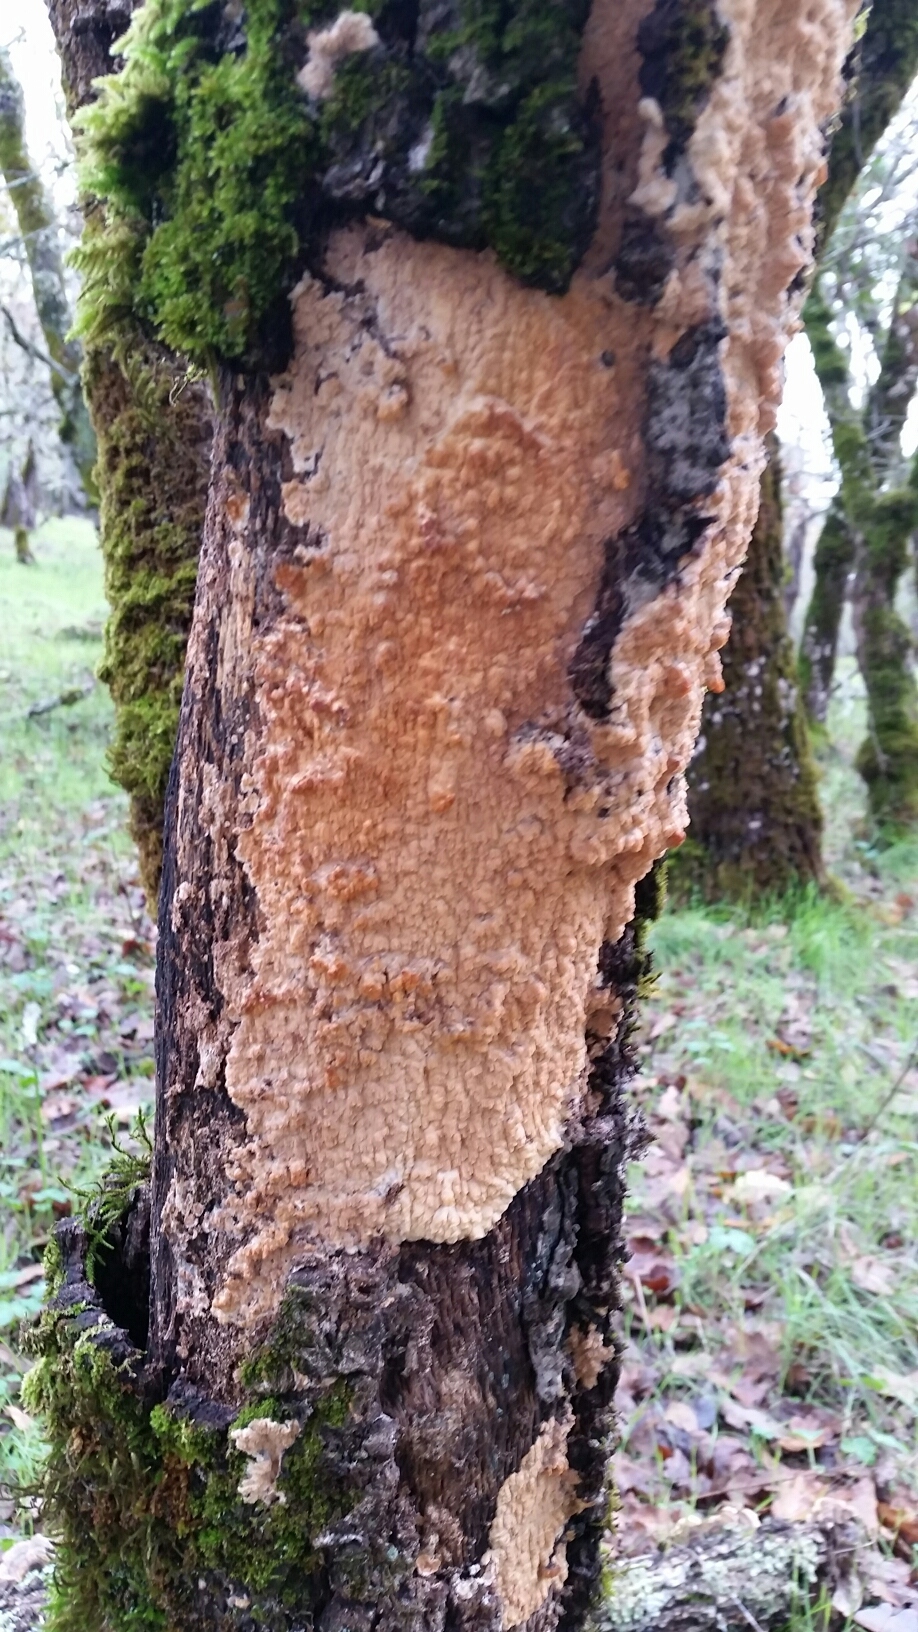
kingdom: Fungi
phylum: Basidiomycota
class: Agaricomycetes
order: Polyporales
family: Meruliaceae
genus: Phlebia
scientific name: Phlebia radiata
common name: Wrinkled crust
